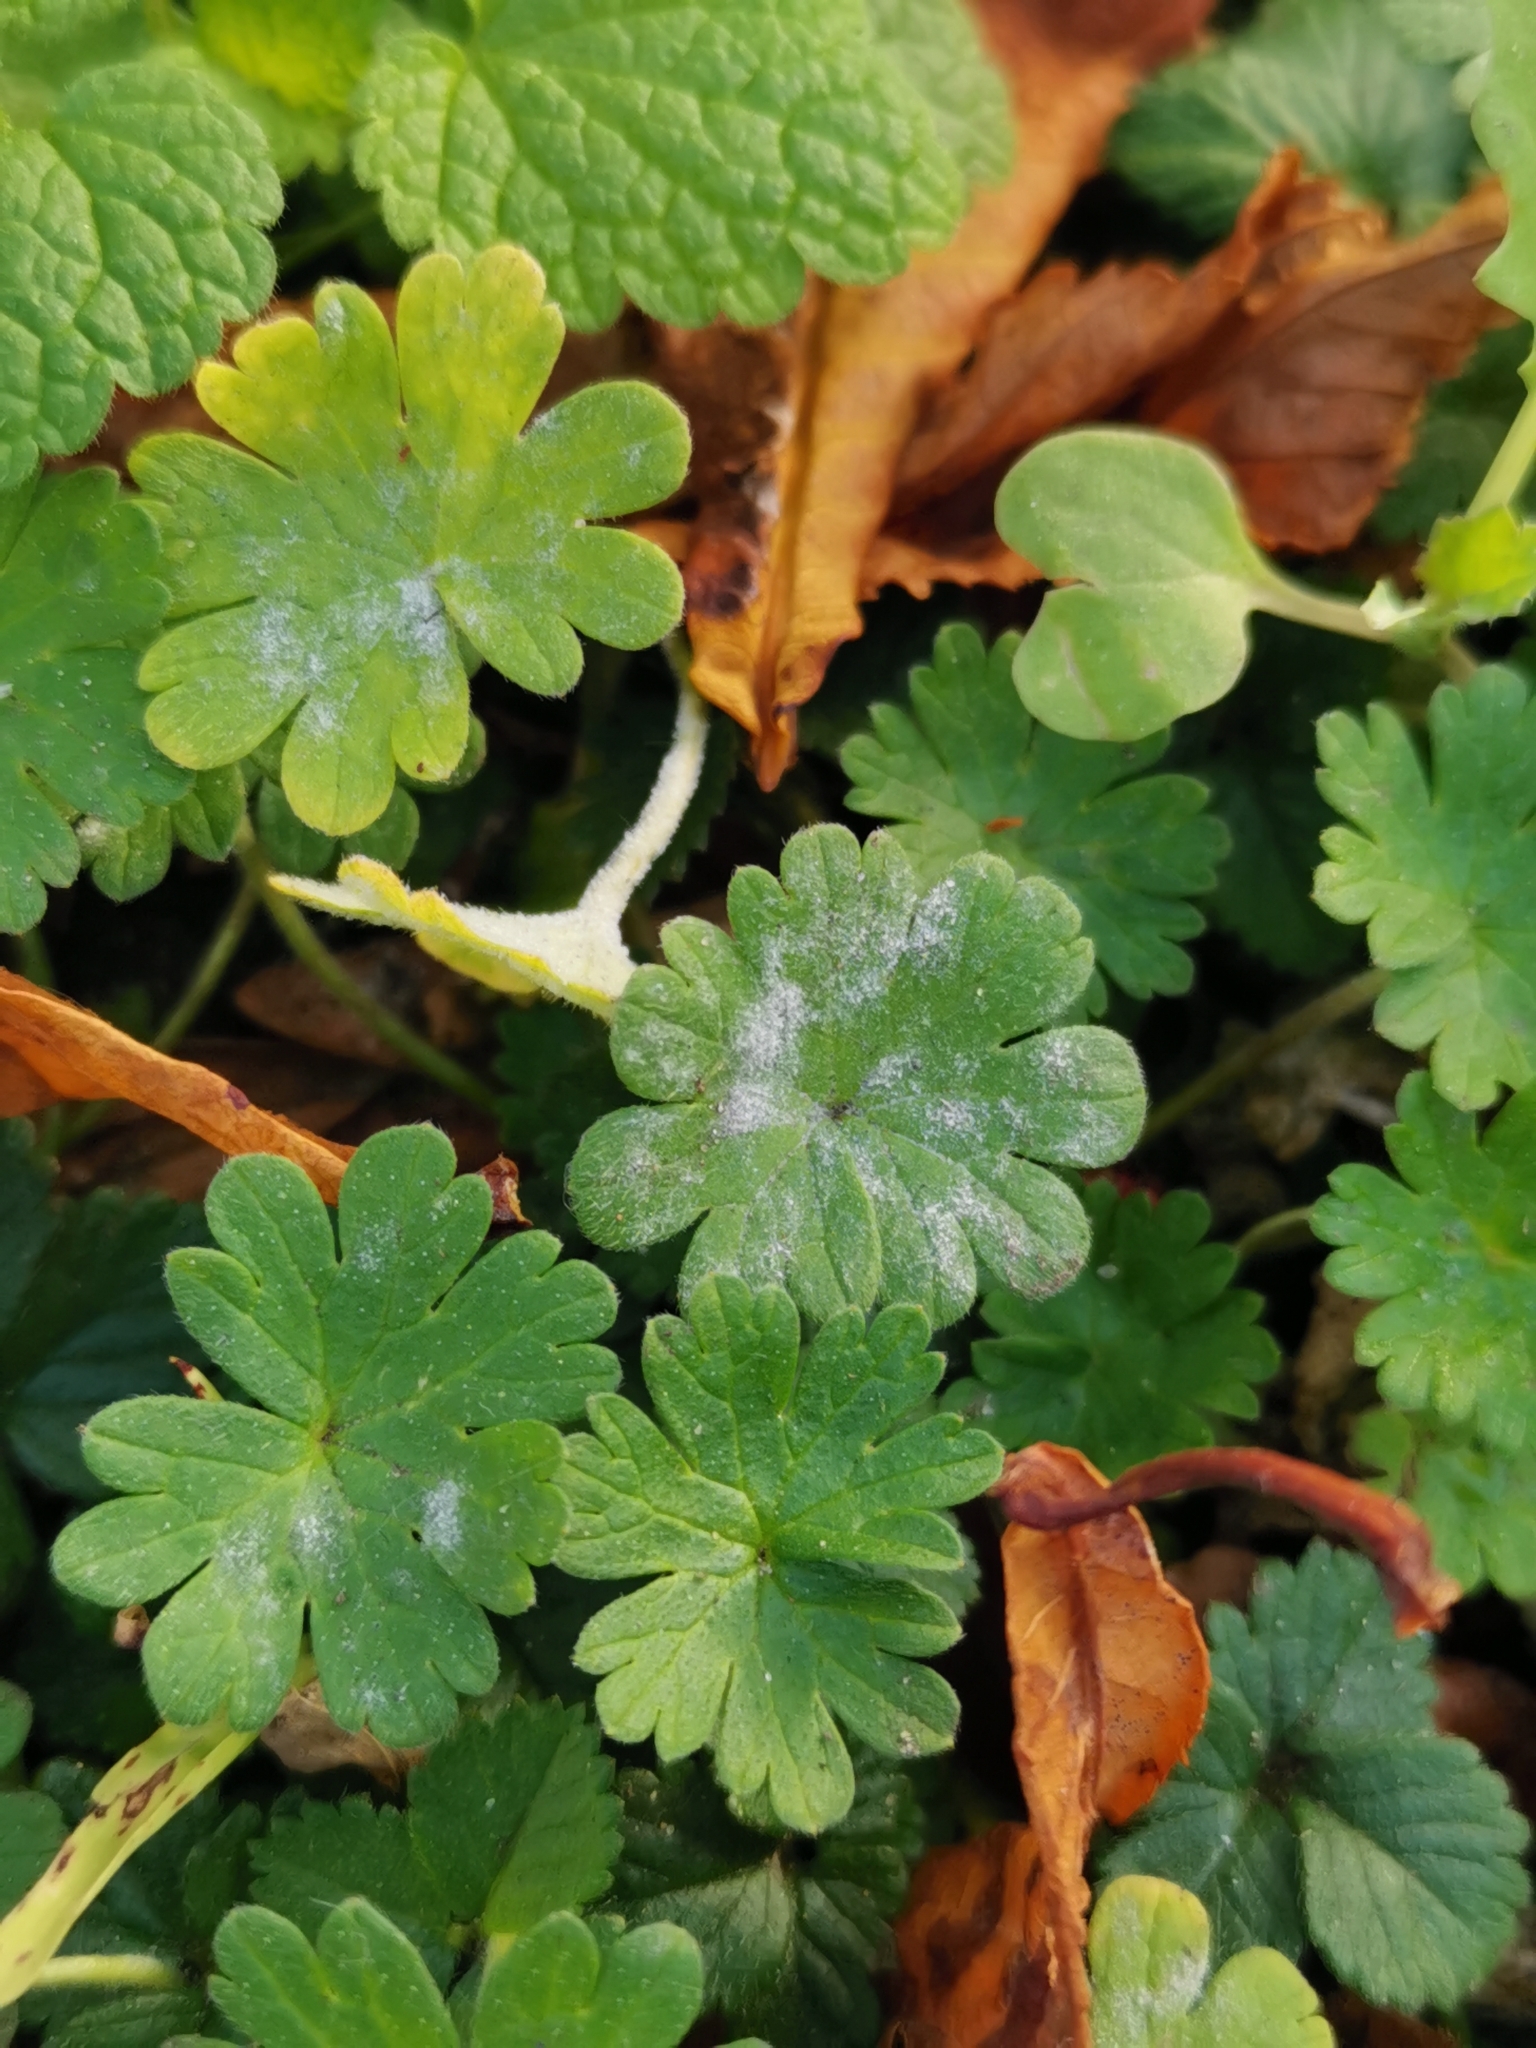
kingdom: Fungi
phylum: Ascomycota
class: Leotiomycetes
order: Helotiales
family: Erysiphaceae
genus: Podosphaera
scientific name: Podosphaera fugax
